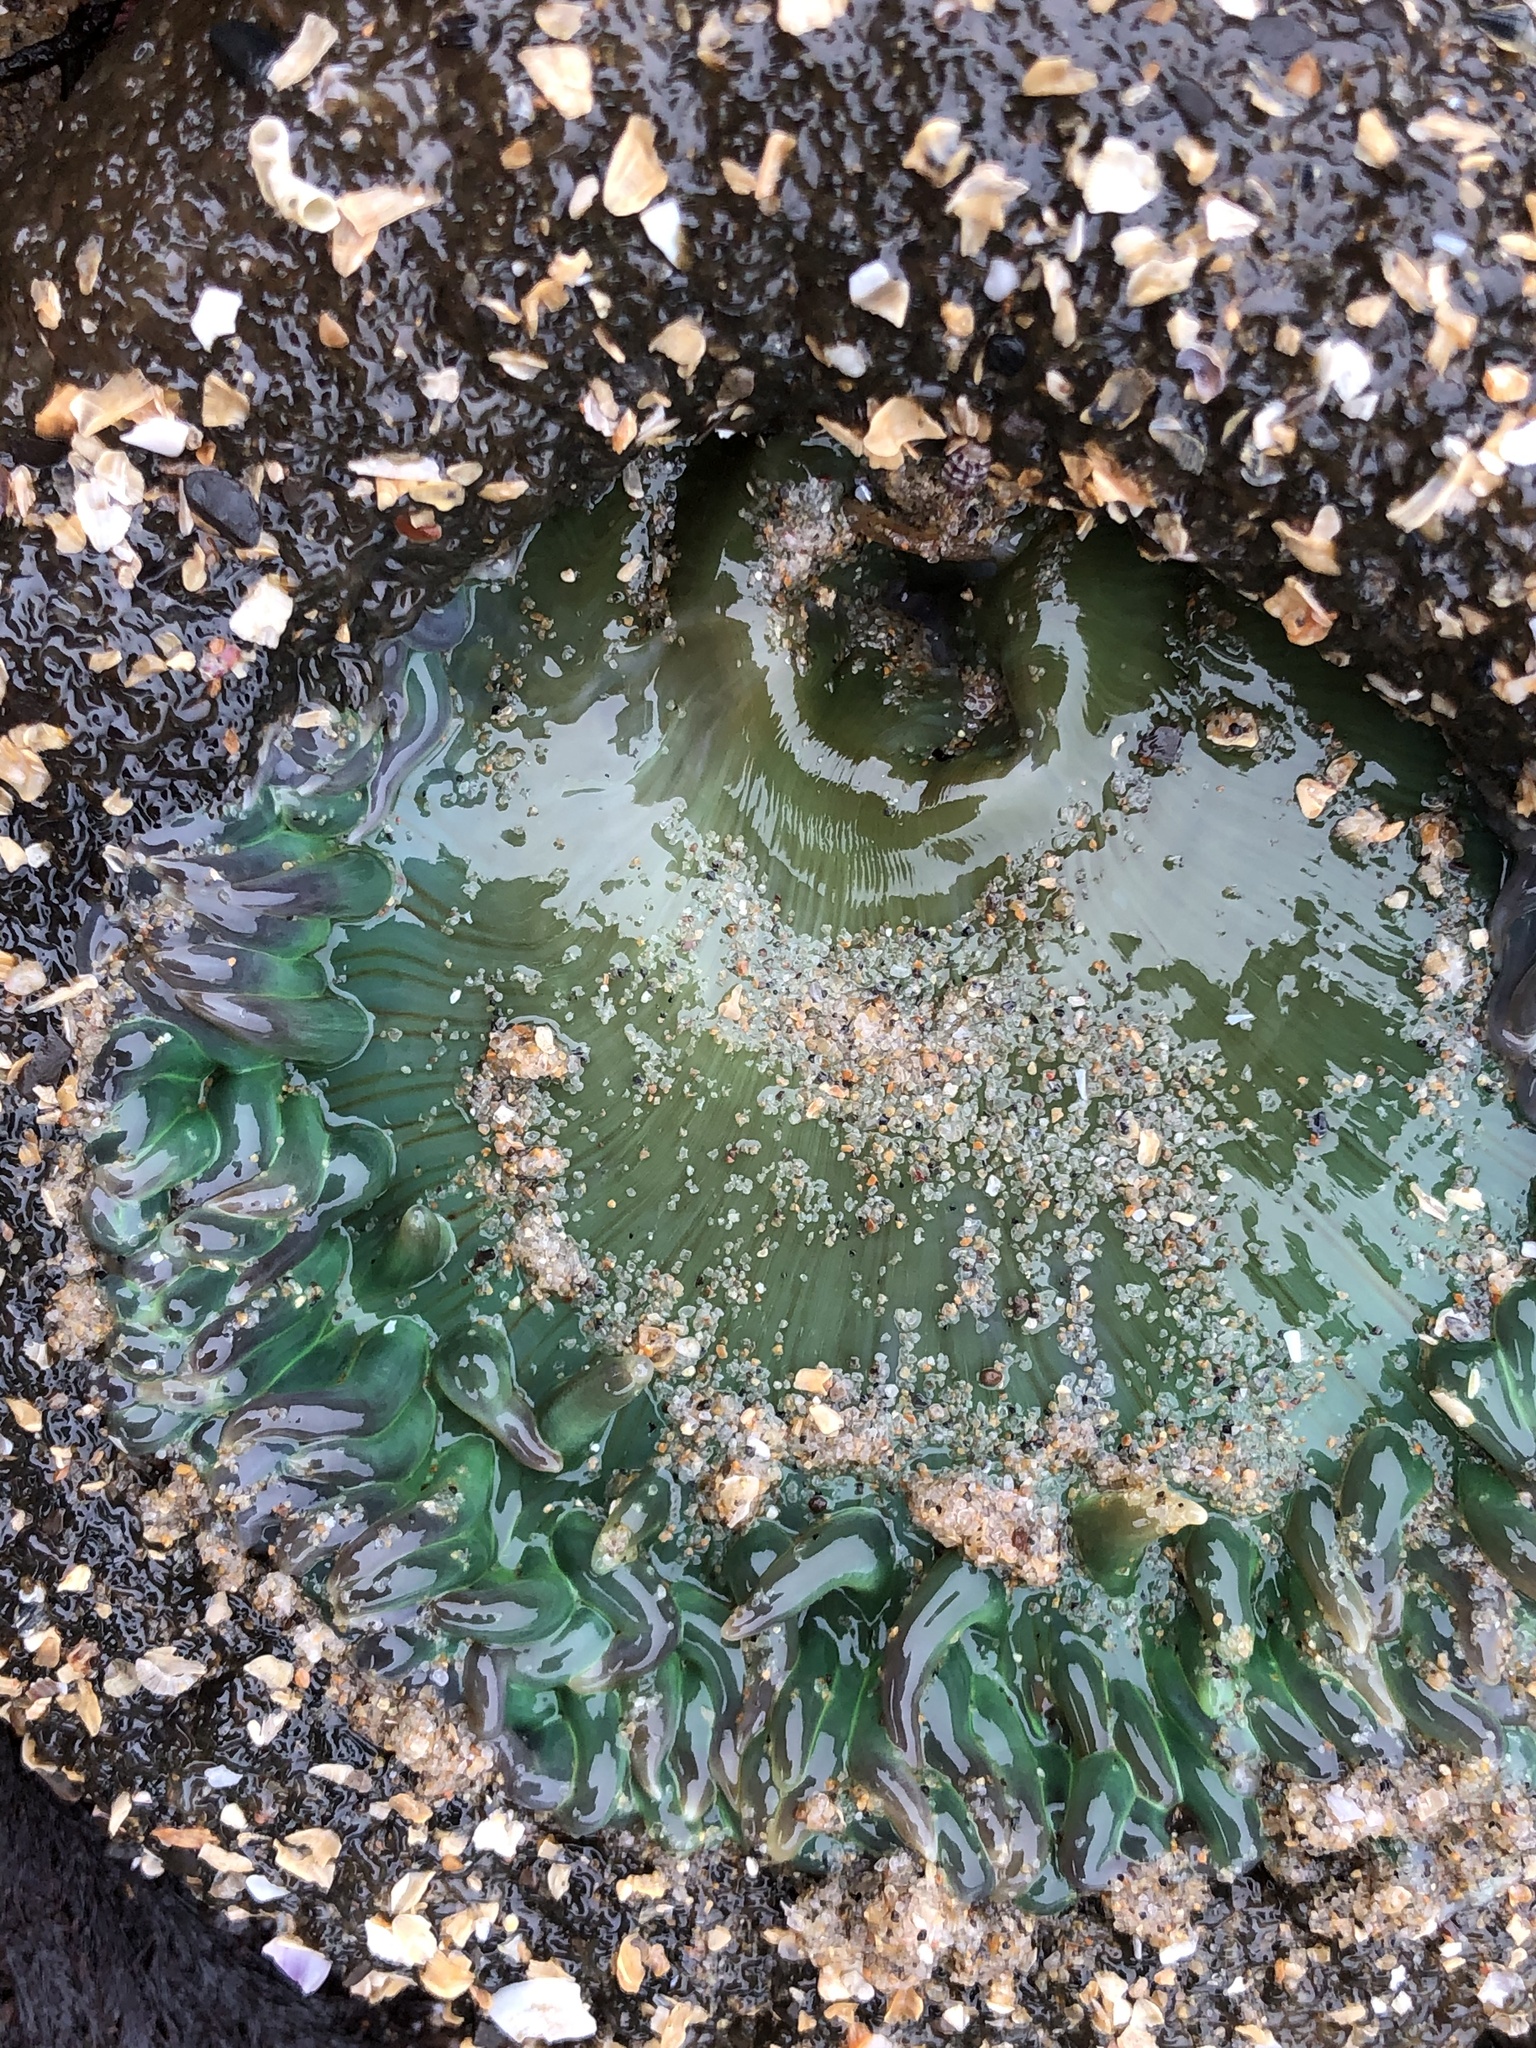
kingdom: Animalia
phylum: Cnidaria
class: Anthozoa
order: Actiniaria
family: Actiniidae
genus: Anthopleura
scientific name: Anthopleura xanthogrammica
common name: Giant green anemone
